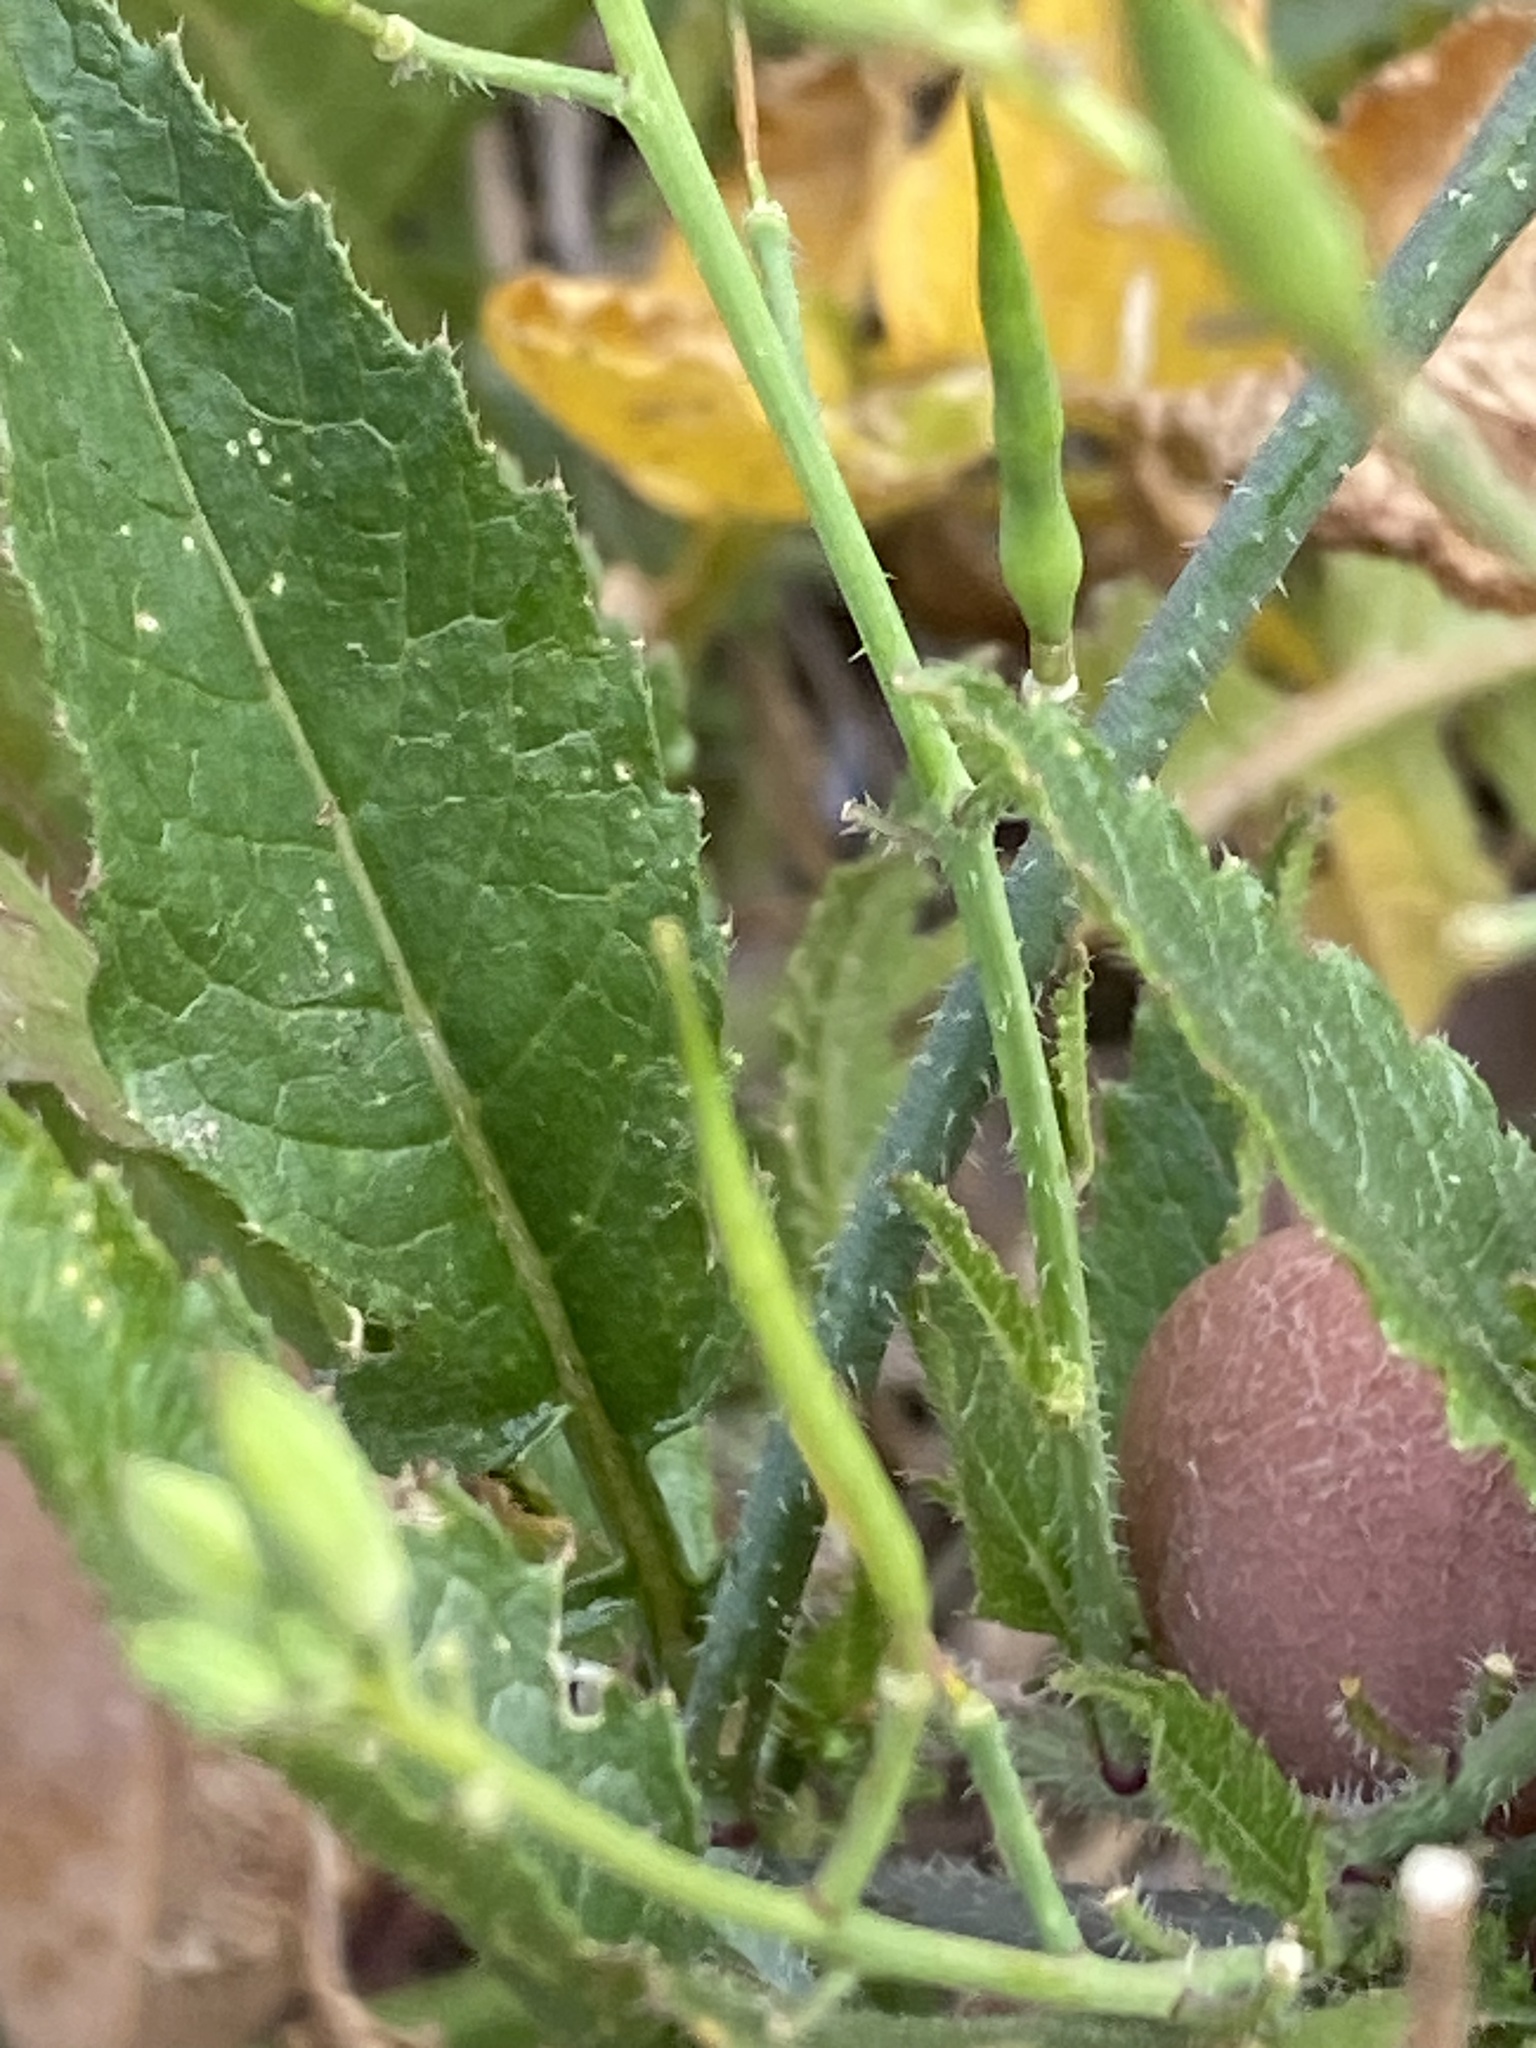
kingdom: Plantae
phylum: Tracheophyta
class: Magnoliopsida
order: Brassicales
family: Brassicaceae
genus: Raphanus
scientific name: Raphanus raphanistrum
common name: Wild radish
